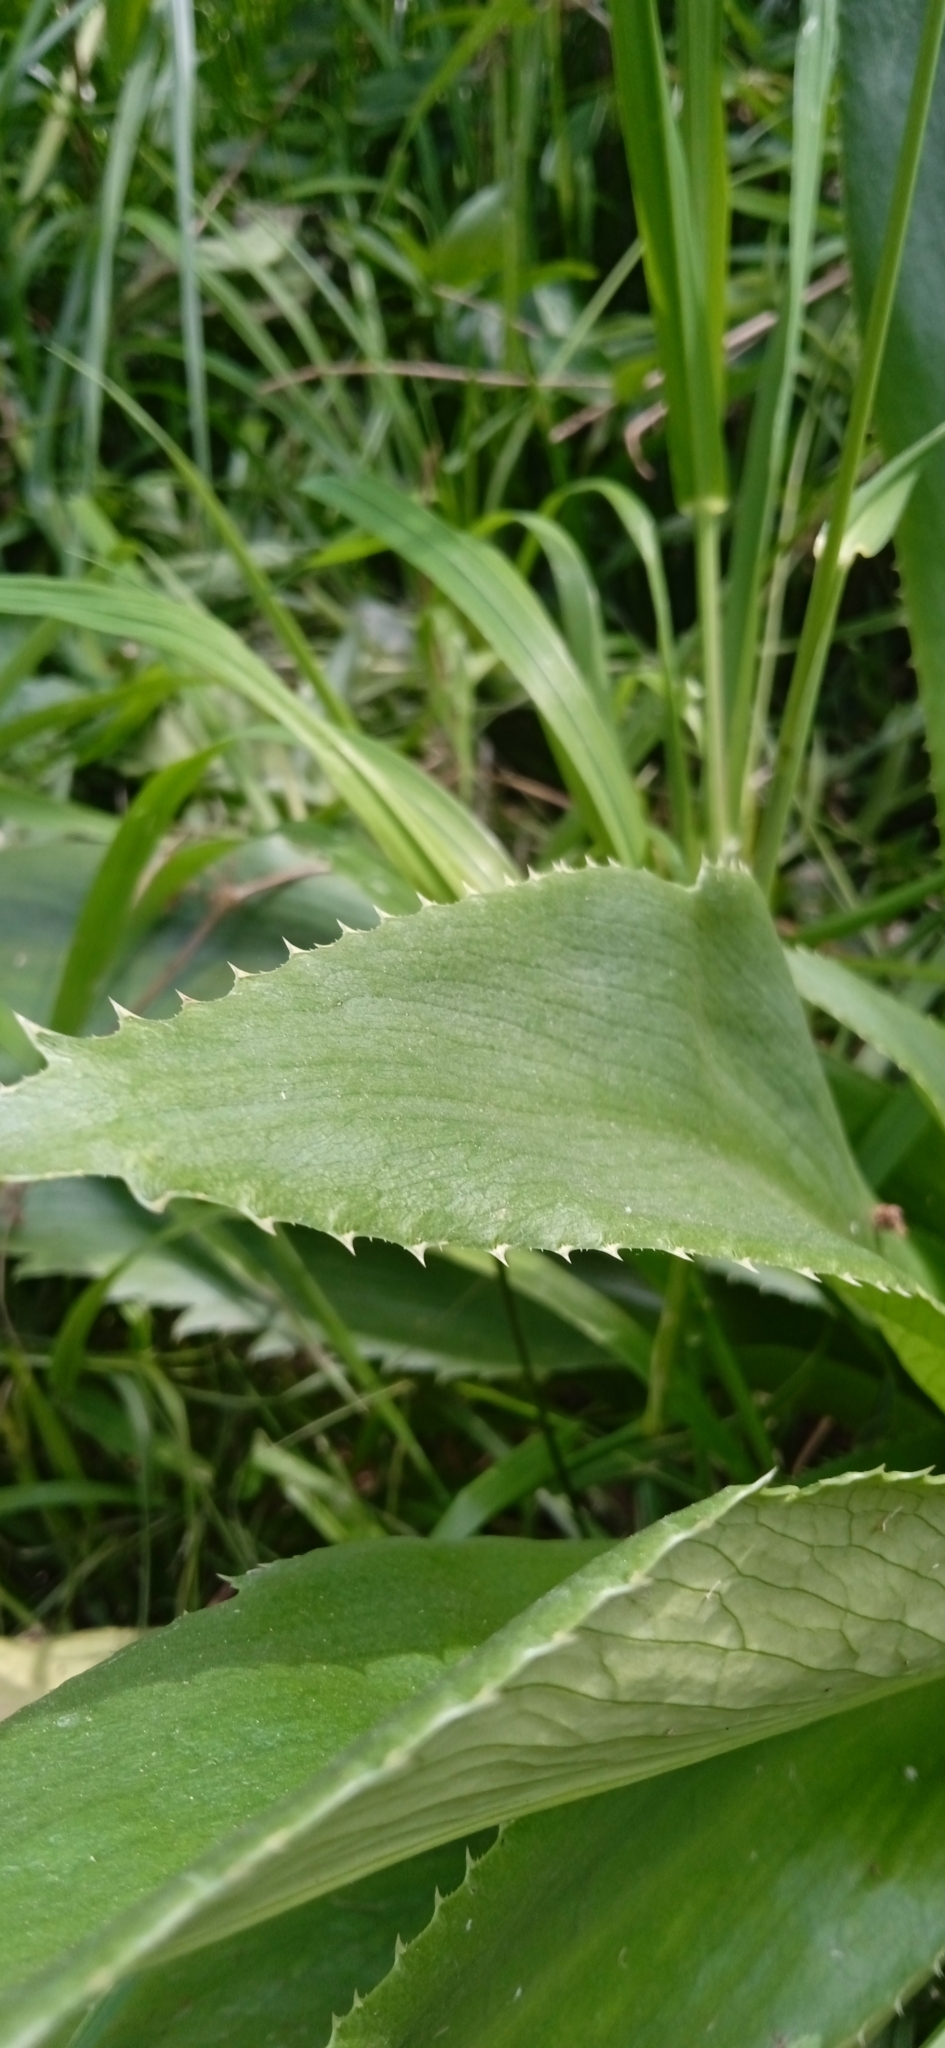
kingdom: Plantae
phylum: Tracheophyta
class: Magnoliopsida
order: Apiales
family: Apiaceae
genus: Eryngium
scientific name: Eryngium elegans
